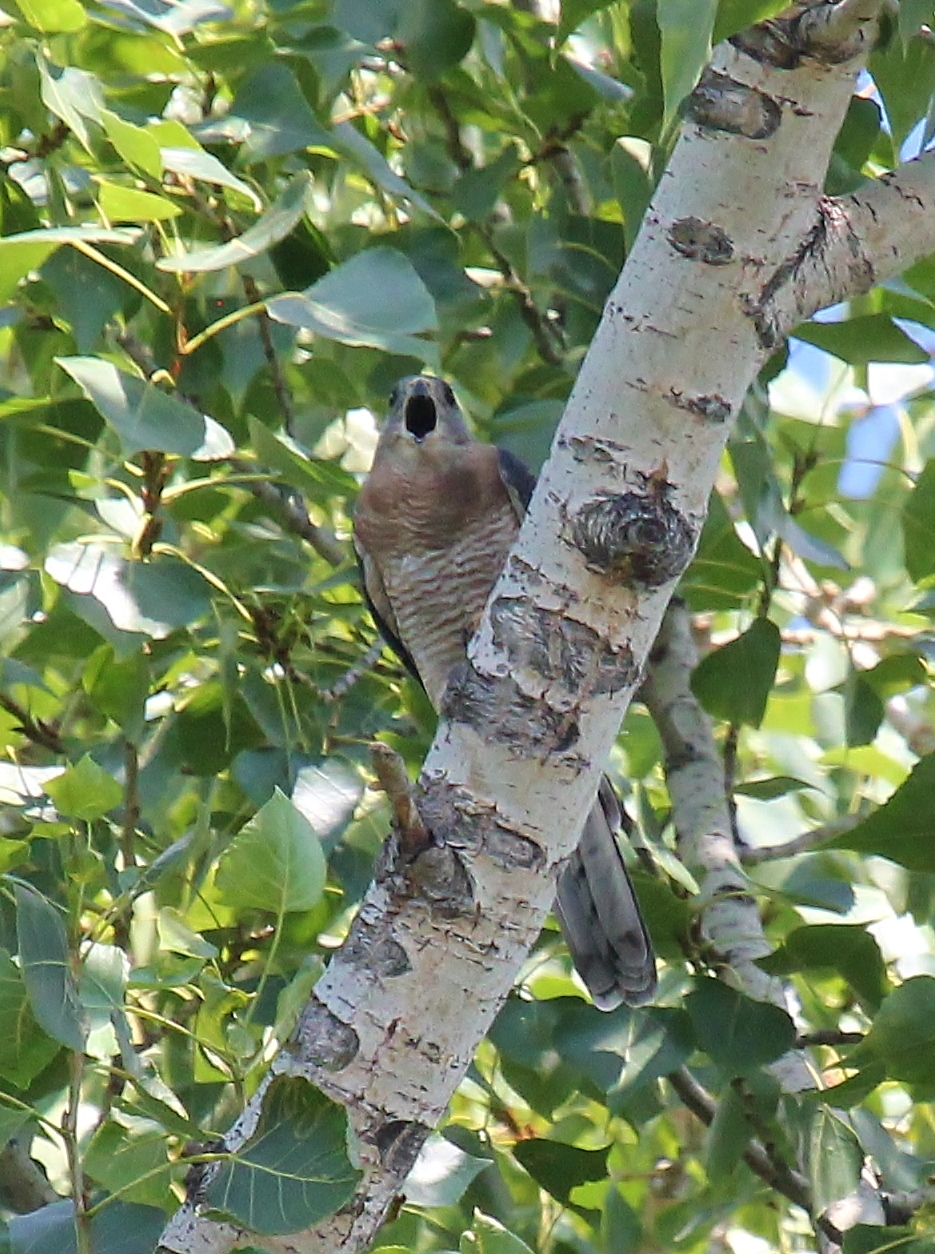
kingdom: Animalia
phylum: Chordata
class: Aves
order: Accipitriformes
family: Accipitridae
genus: Accipiter
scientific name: Accipiter brevipes
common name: Levant sparrowhawk
